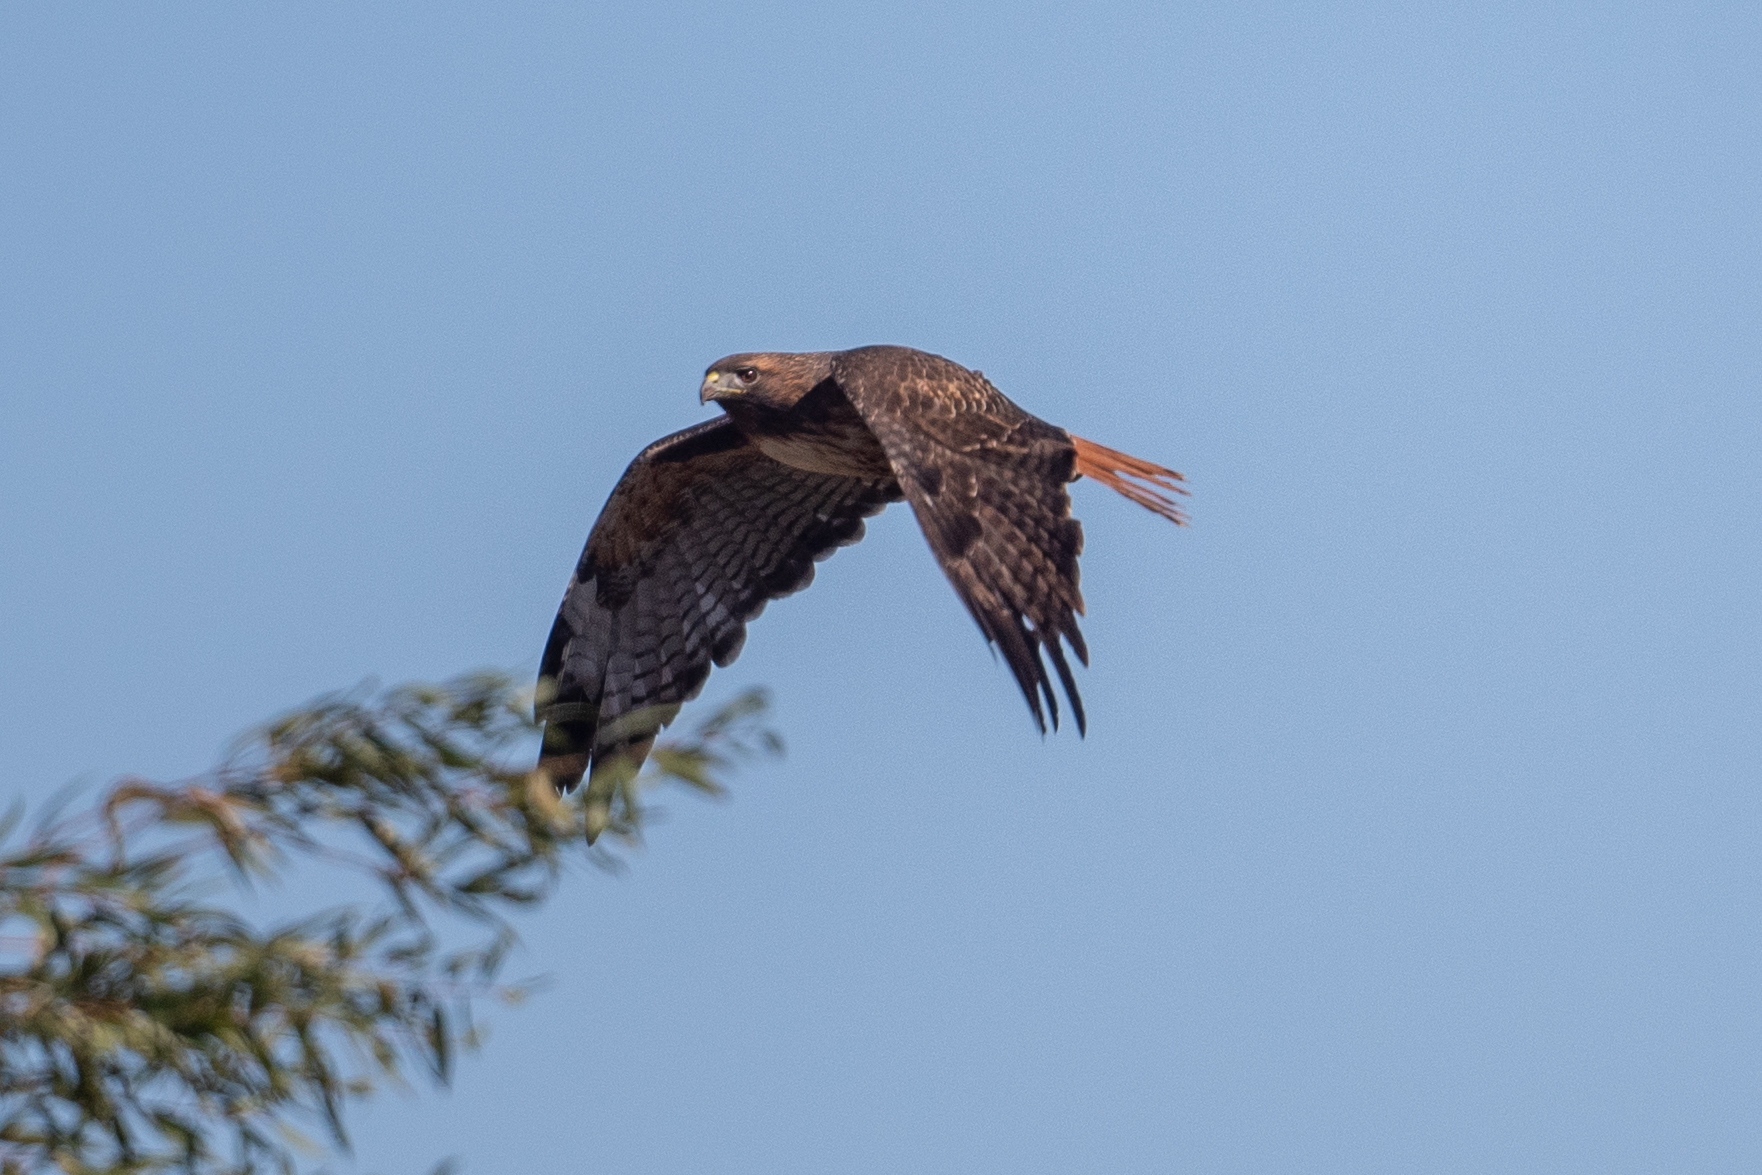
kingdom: Animalia
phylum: Chordata
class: Aves
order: Accipitriformes
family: Accipitridae
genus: Buteo
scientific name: Buteo jamaicensis
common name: Red-tailed hawk
